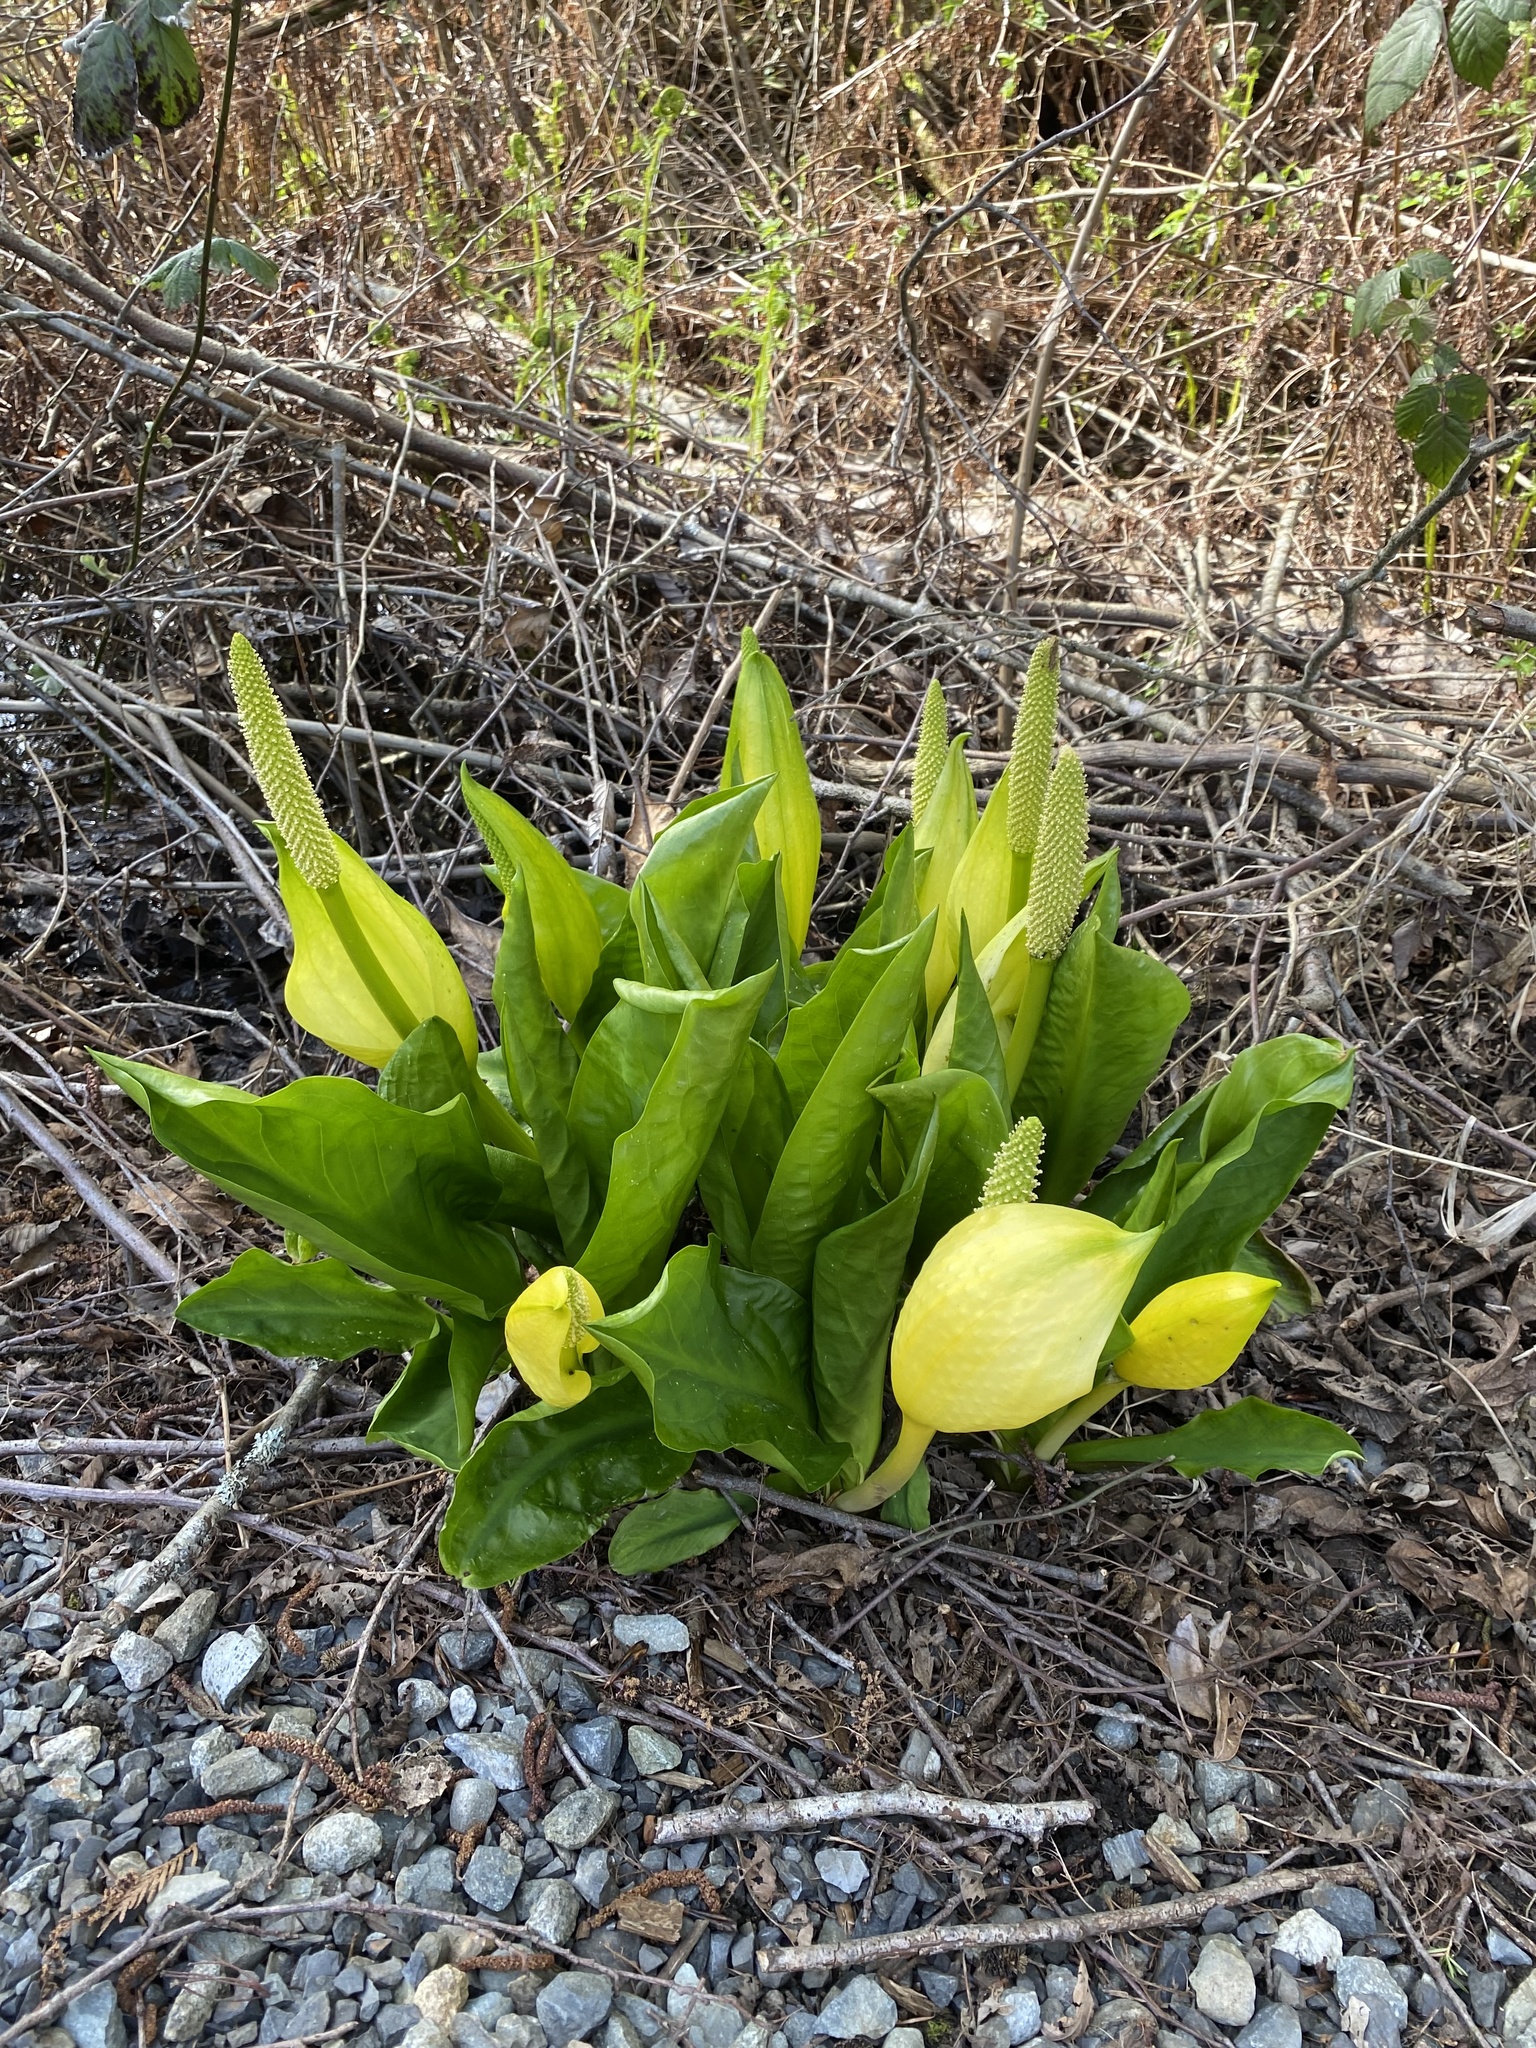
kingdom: Plantae
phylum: Tracheophyta
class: Liliopsida
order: Alismatales
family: Araceae
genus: Lysichiton
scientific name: Lysichiton americanus
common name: American skunk cabbage
